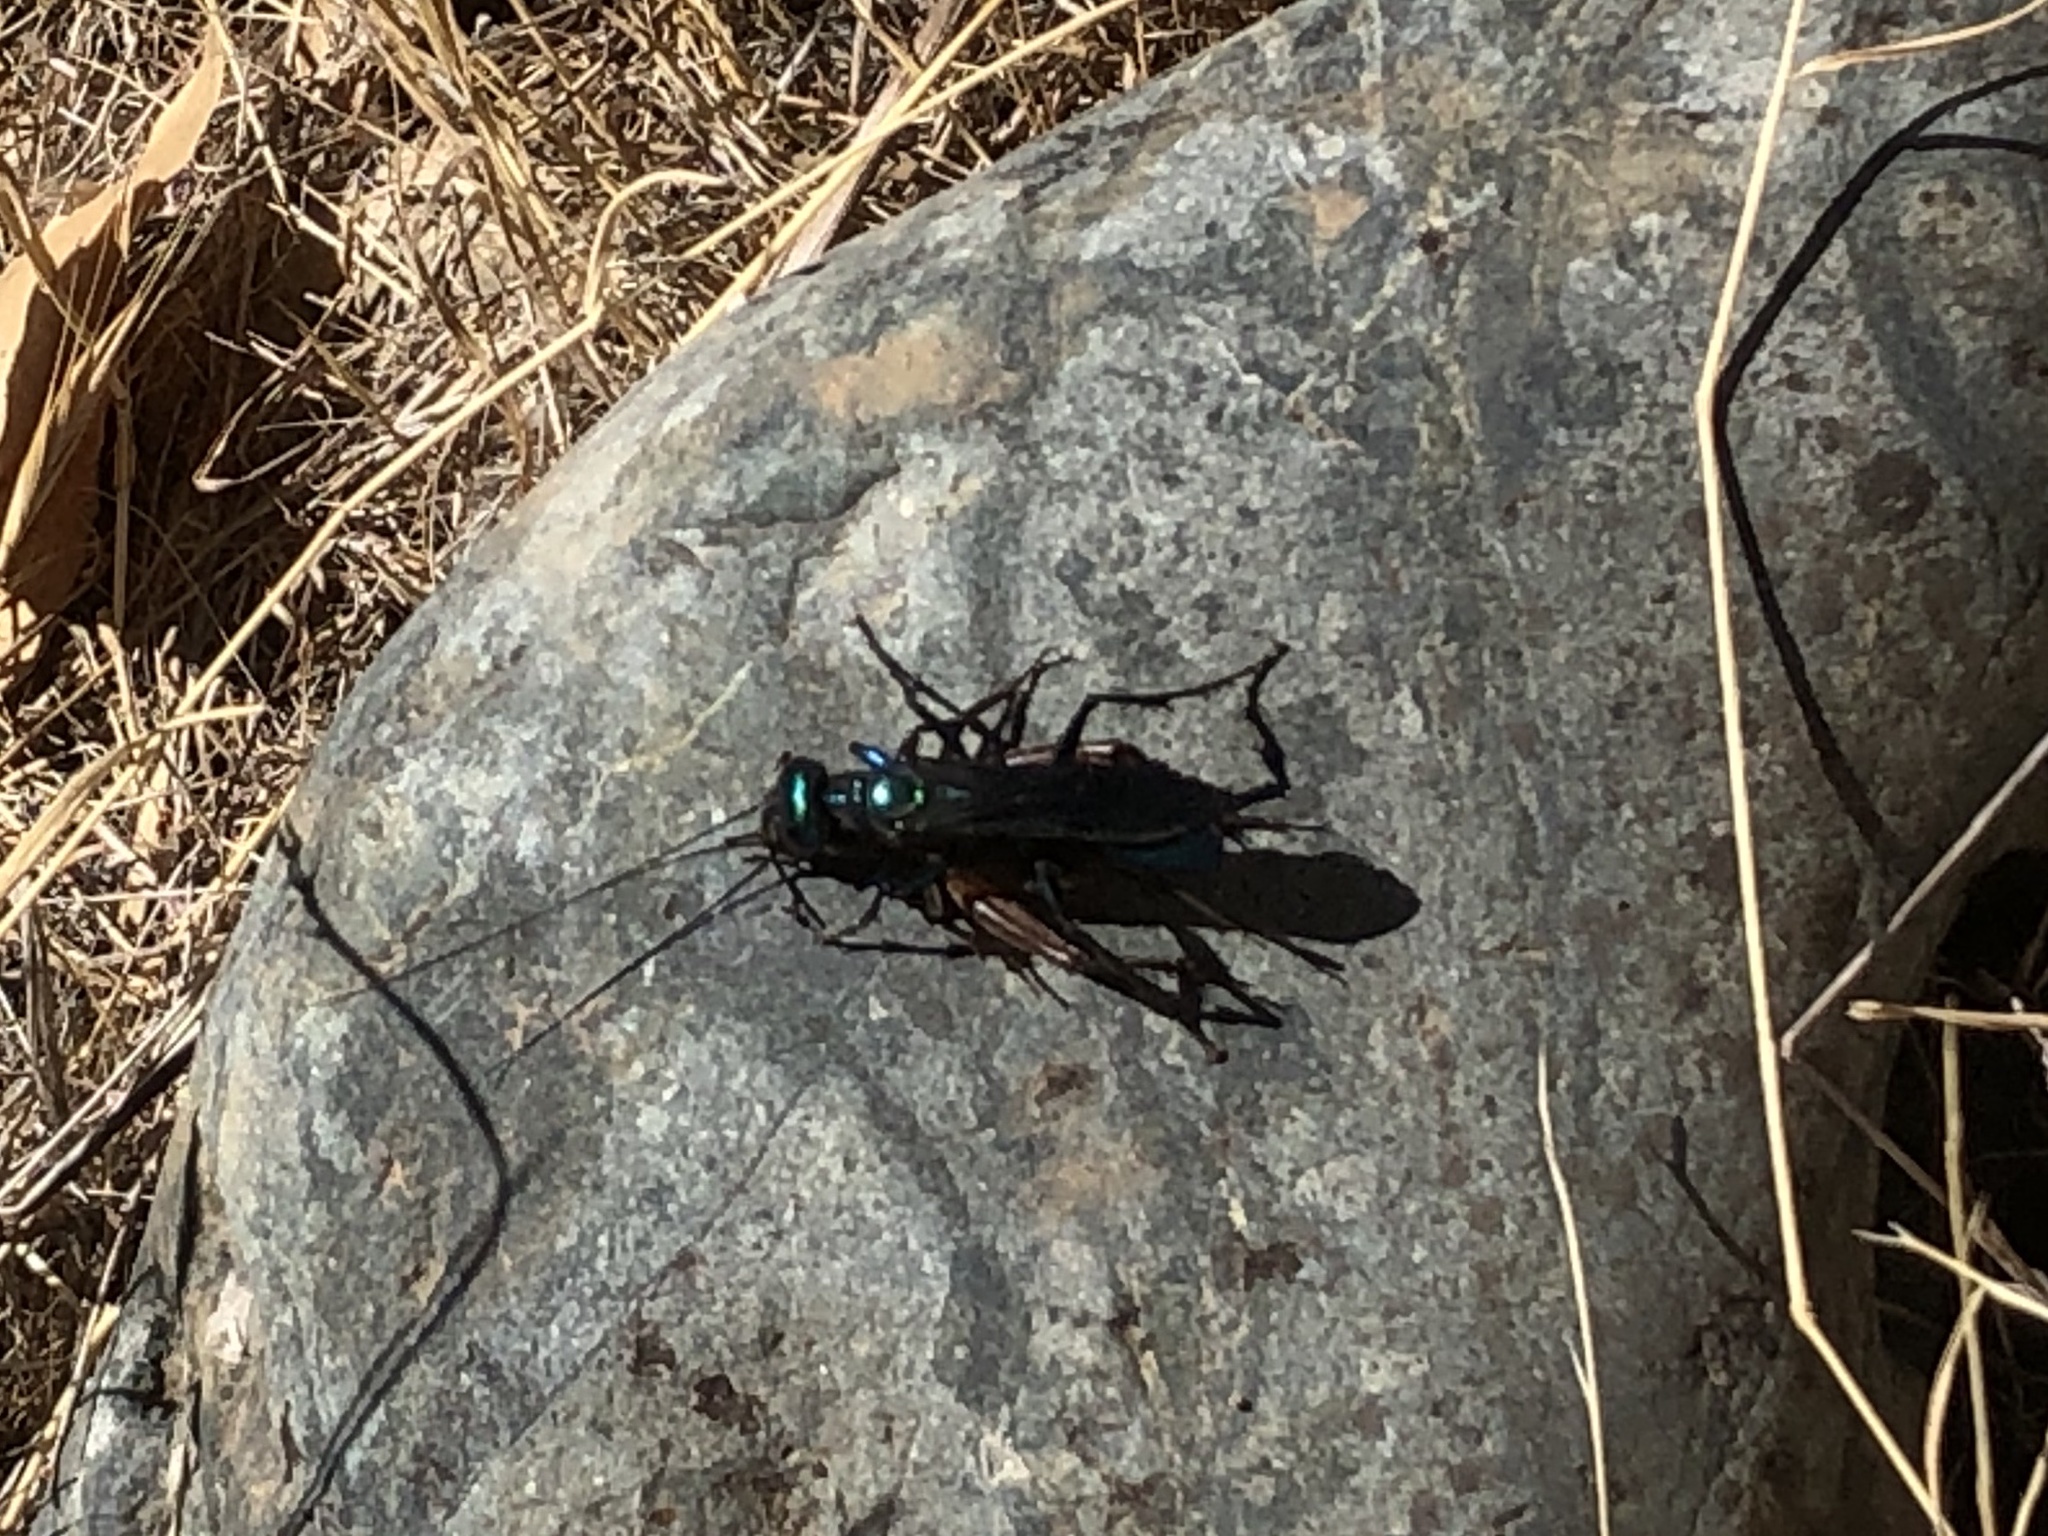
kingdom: Animalia
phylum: Arthropoda
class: Insecta
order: Hymenoptera
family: Sphecidae
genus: Chlorion
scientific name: Chlorion aerarium
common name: Steel-blue cricket hunter
